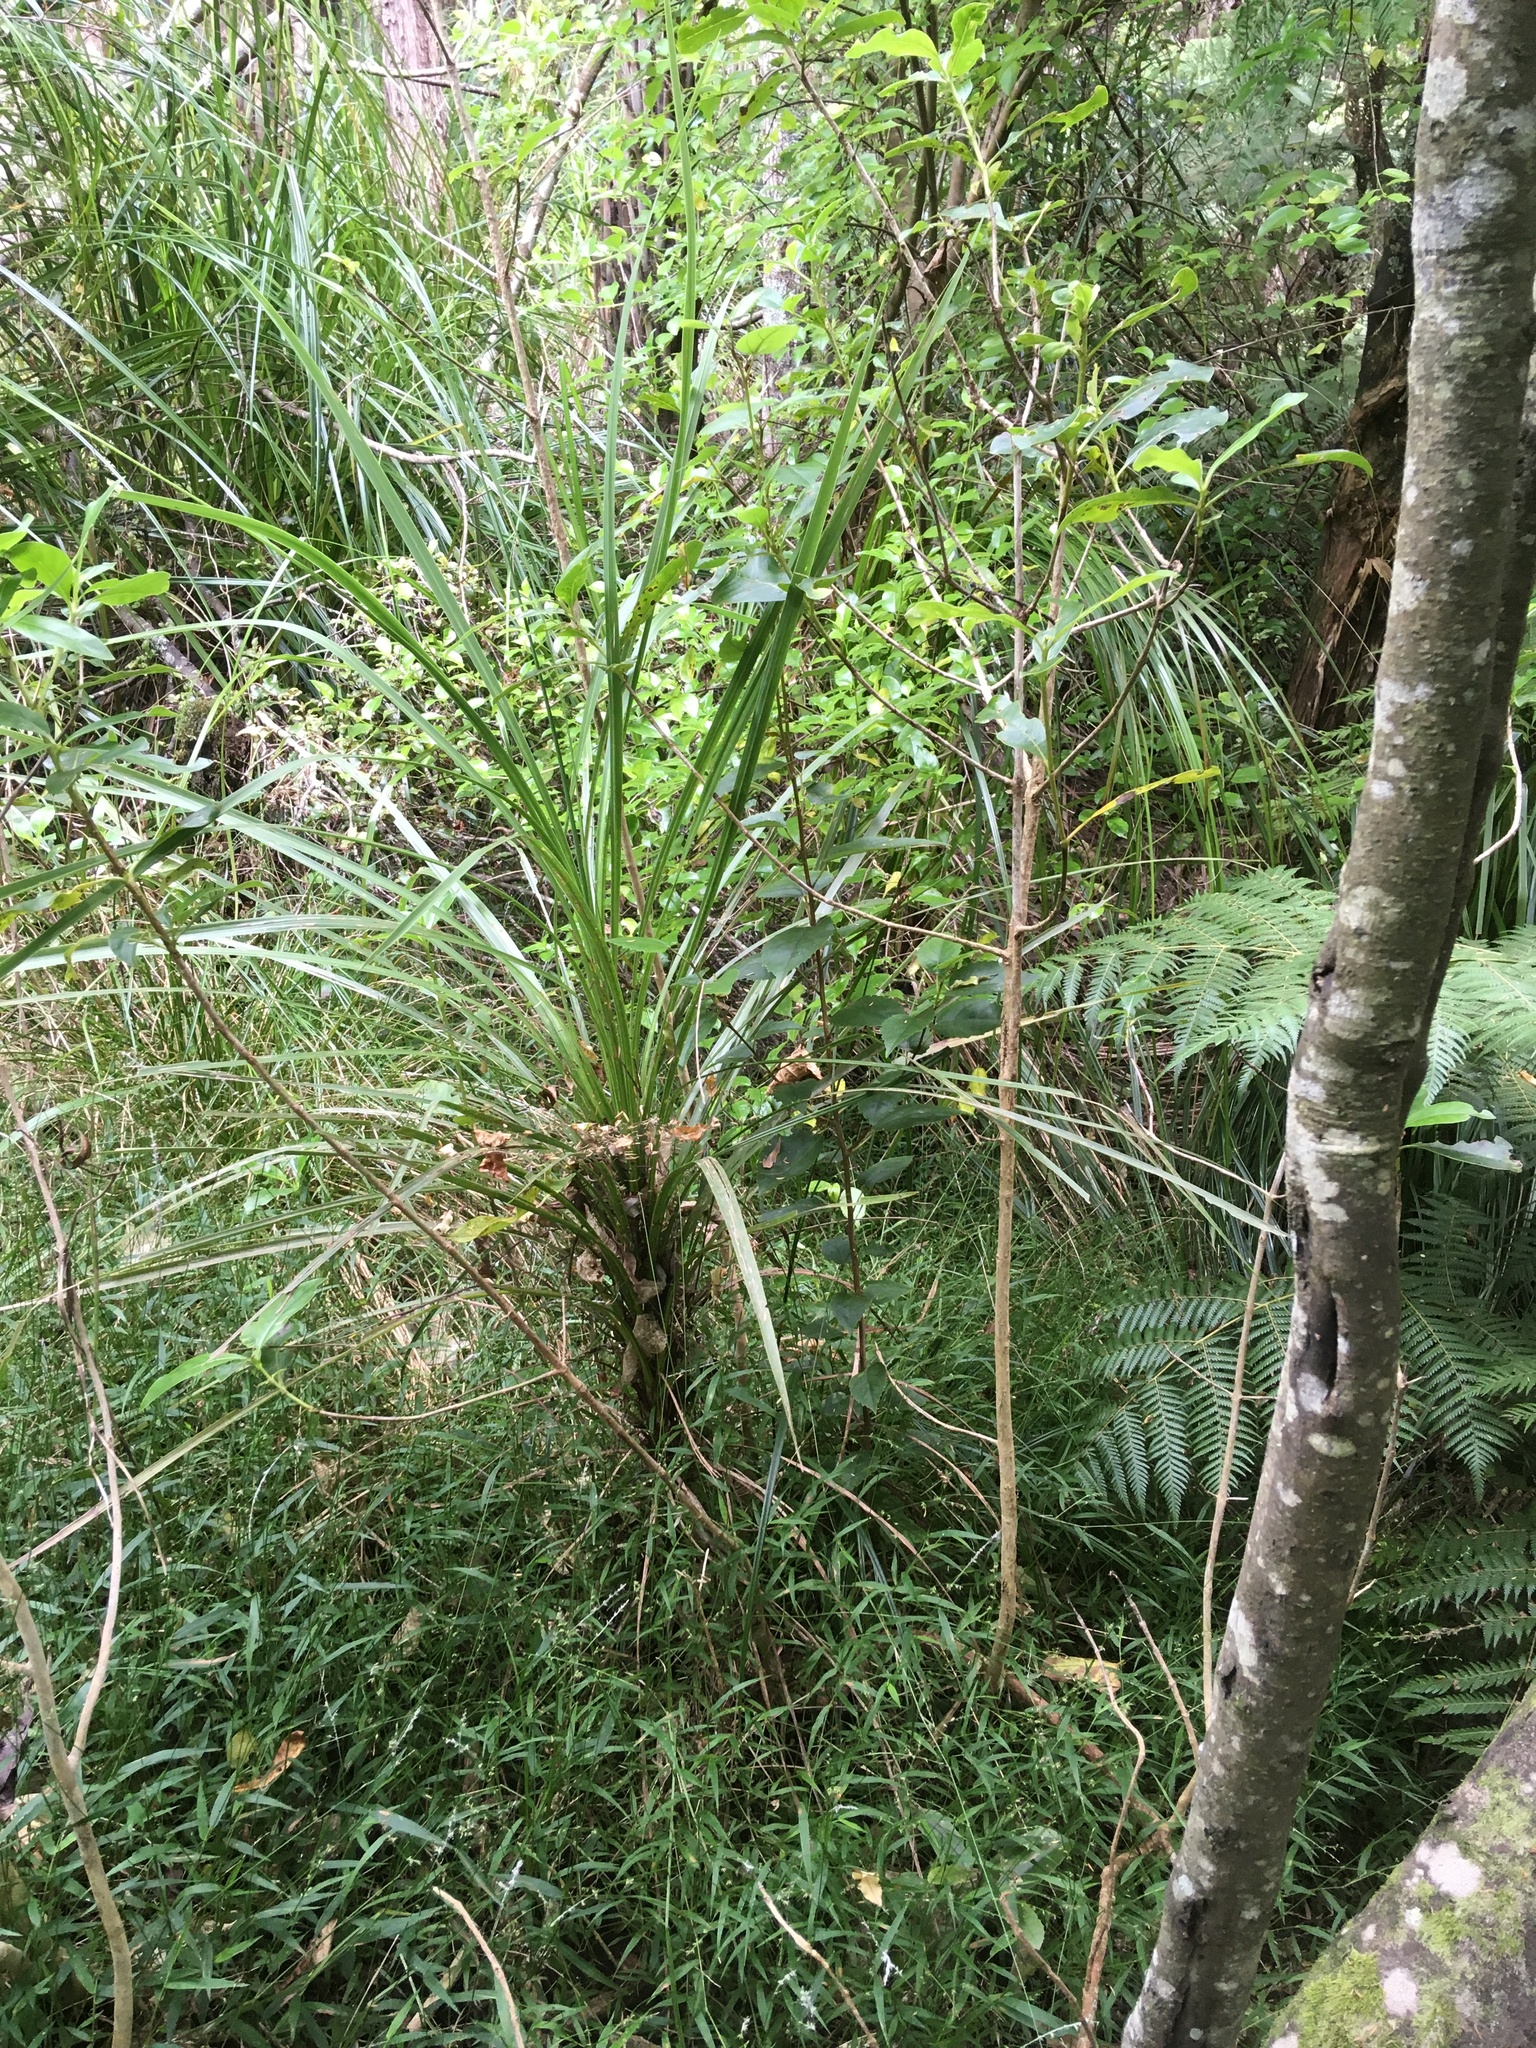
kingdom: Plantae
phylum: Tracheophyta
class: Liliopsida
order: Asparagales
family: Asparagaceae
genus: Cordyline
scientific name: Cordyline australis
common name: Cabbage-palm
